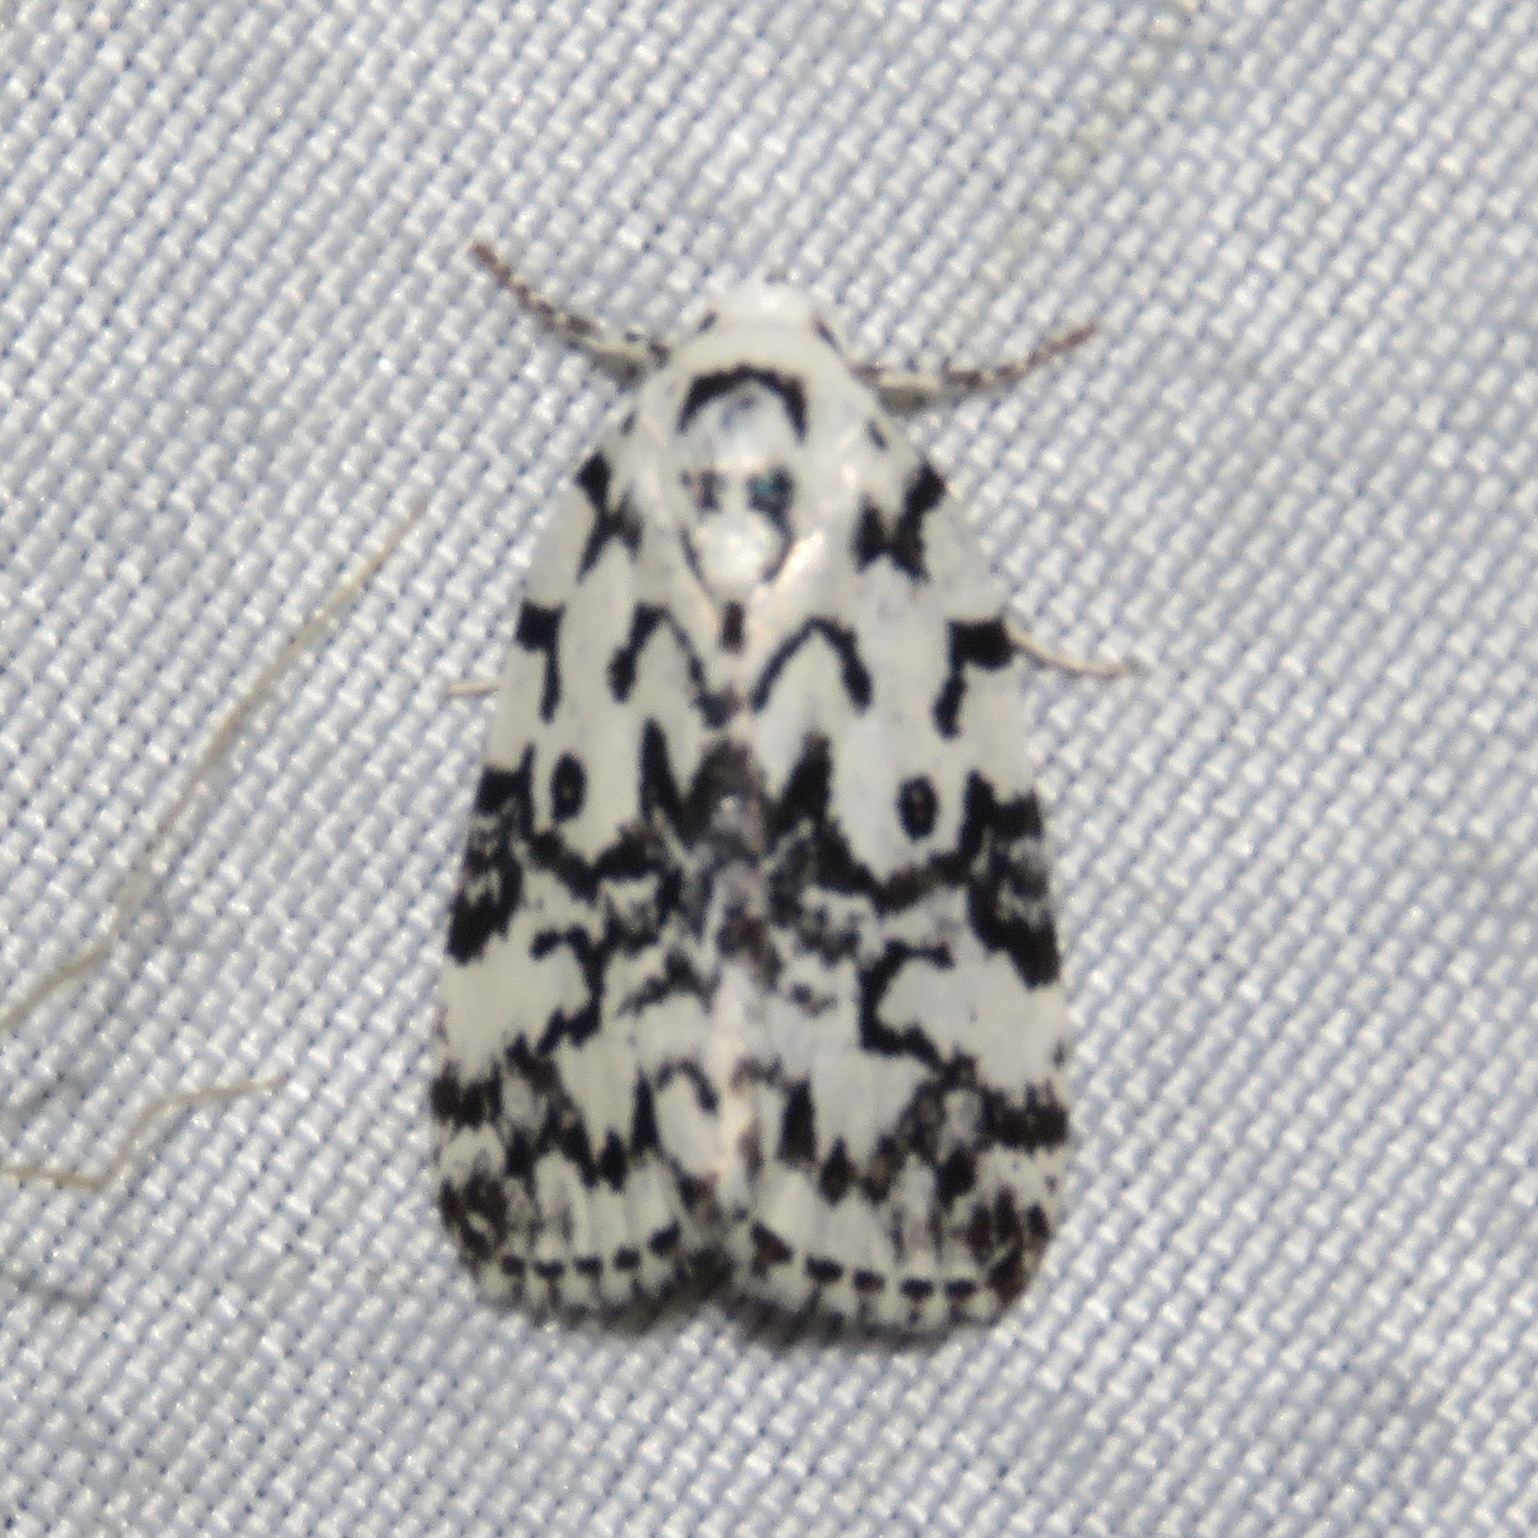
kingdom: Animalia
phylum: Arthropoda
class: Insecta
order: Lepidoptera
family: Noctuidae
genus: Polygrammate
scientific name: Polygrammate hebraeicum
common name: Hebrew moth
